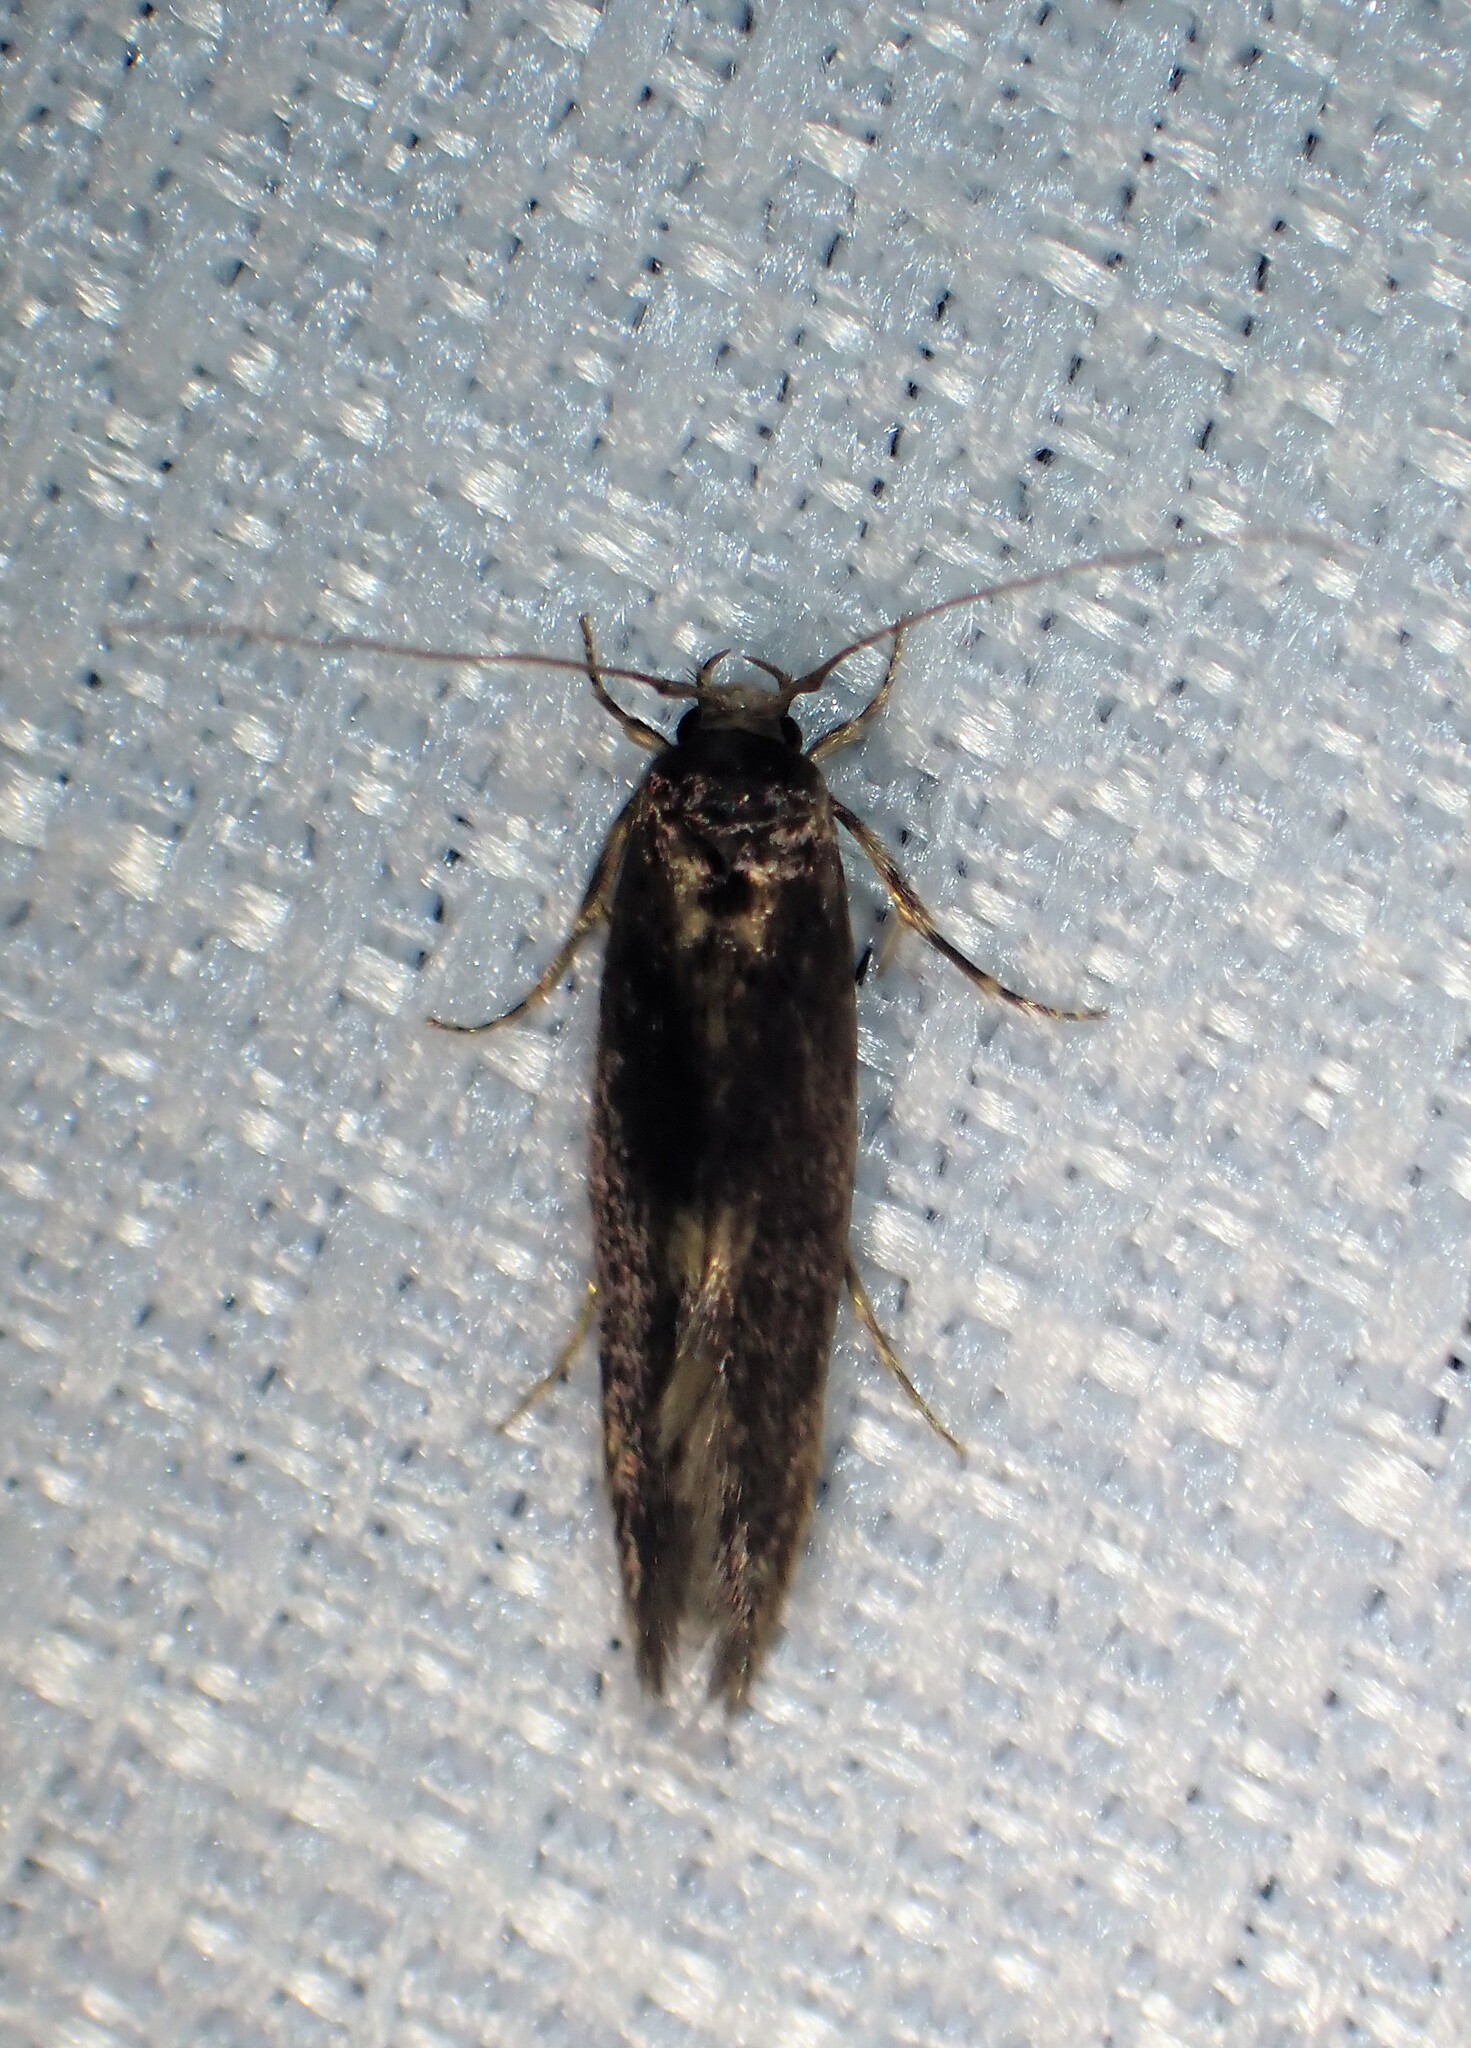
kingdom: Animalia
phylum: Arthropoda
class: Insecta
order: Lepidoptera
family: Tineidae
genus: Opogona
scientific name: Opogona omoscopa
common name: Moth
